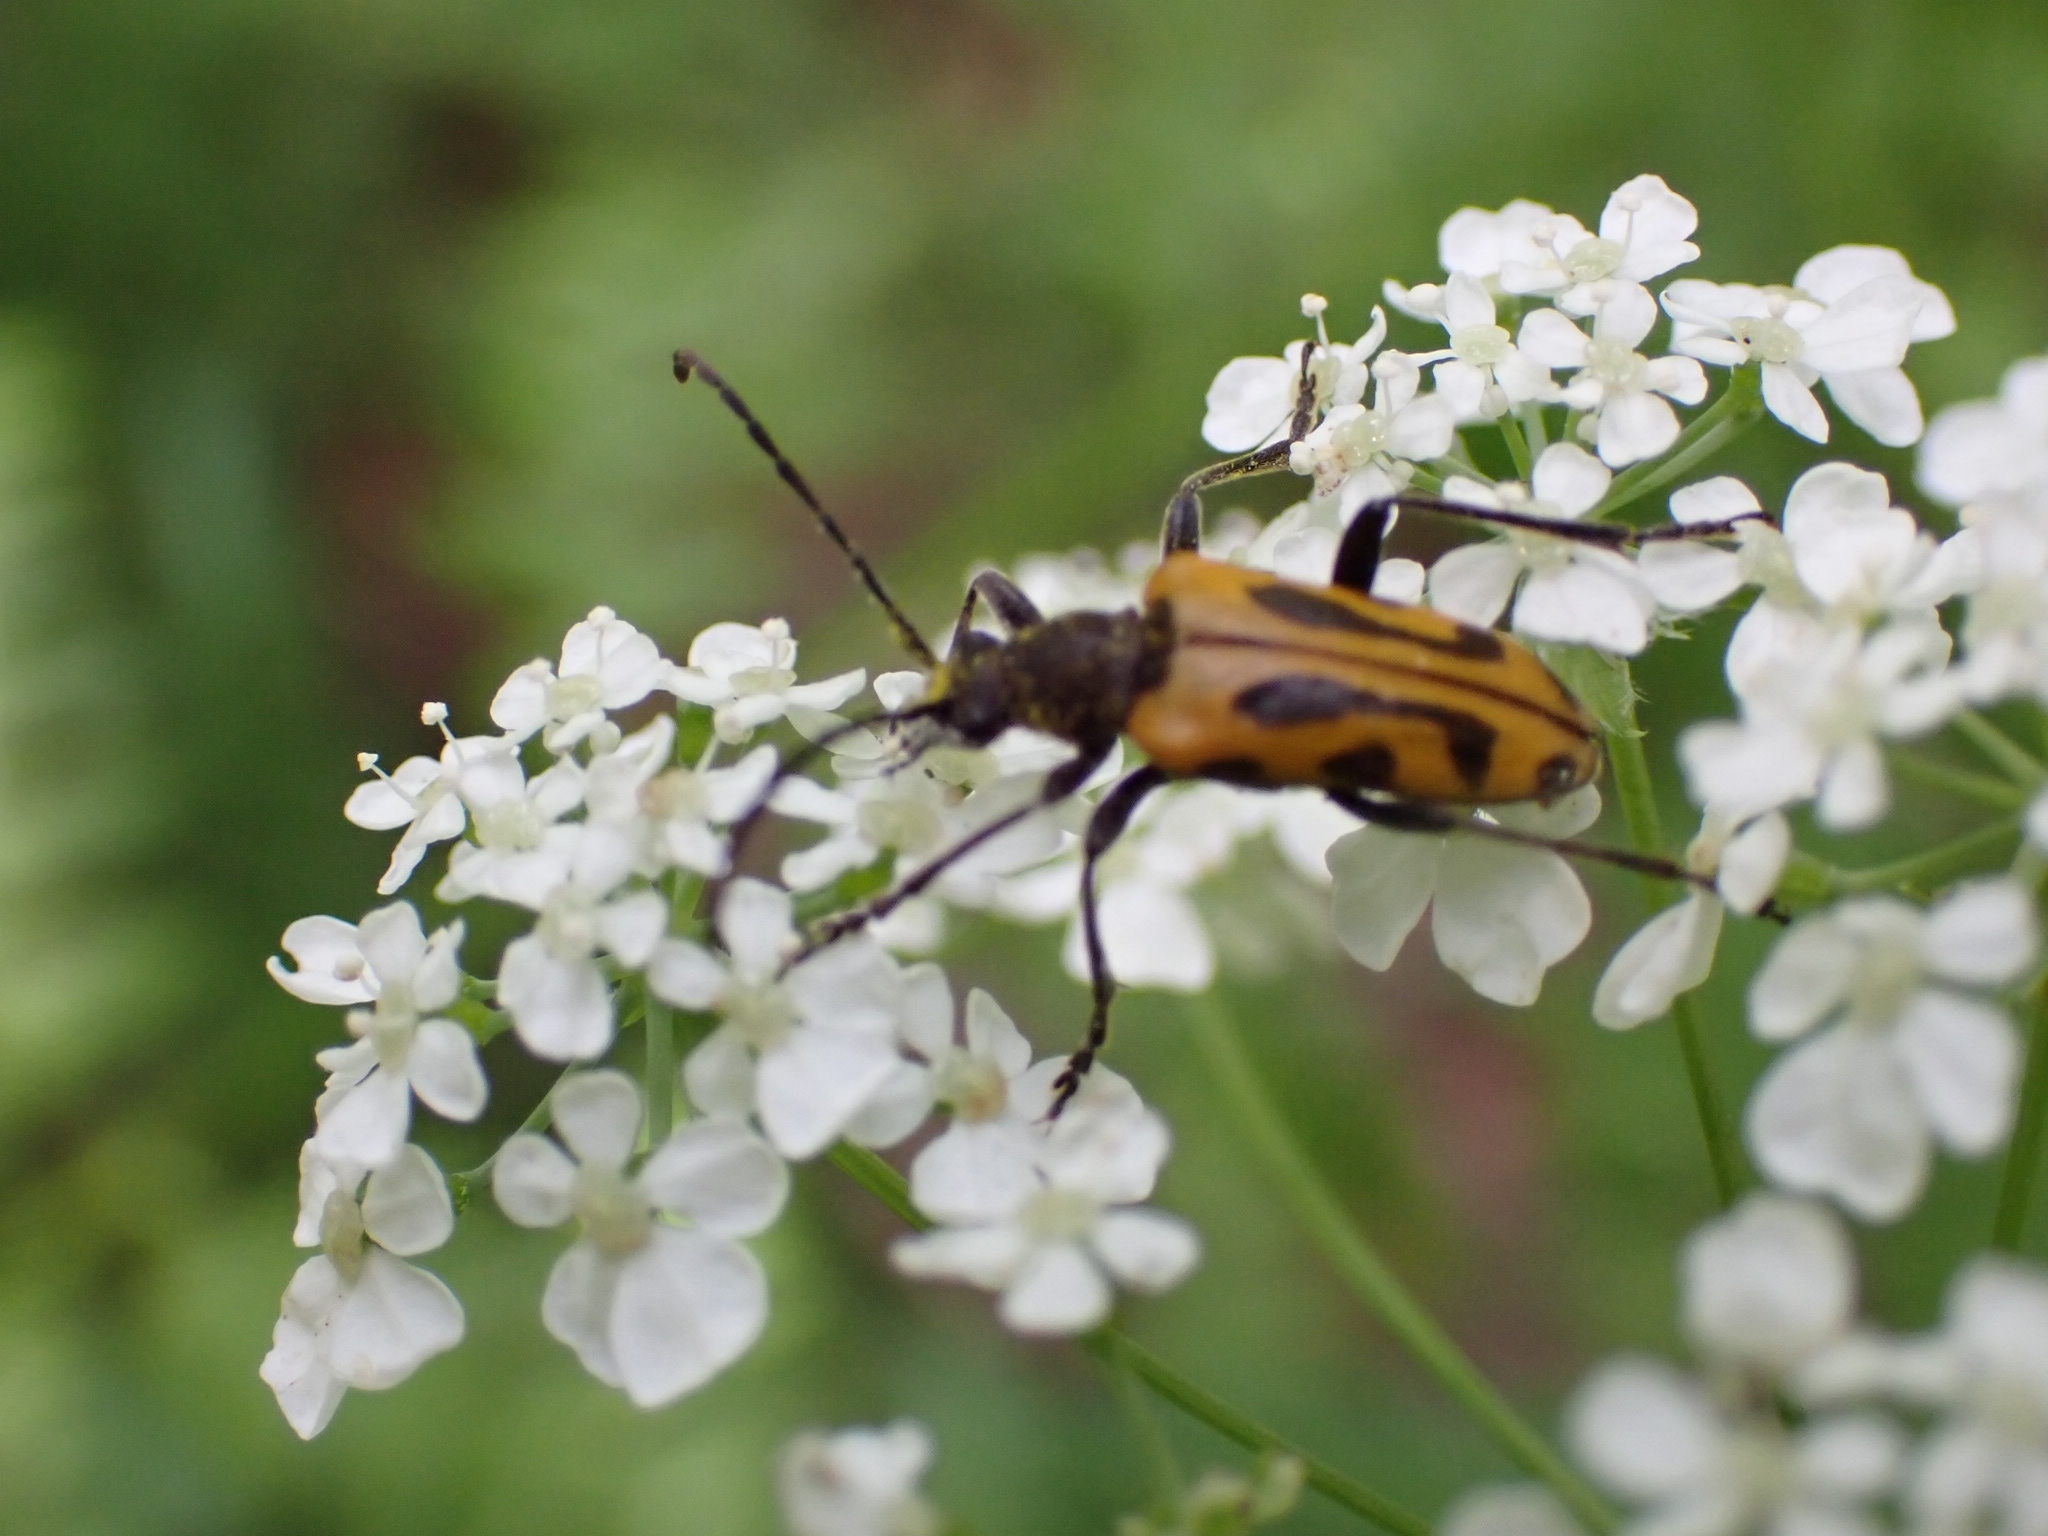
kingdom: Animalia
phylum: Arthropoda
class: Insecta
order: Coleoptera
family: Cerambycidae
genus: Brachyta
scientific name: Brachyta interrogationis
